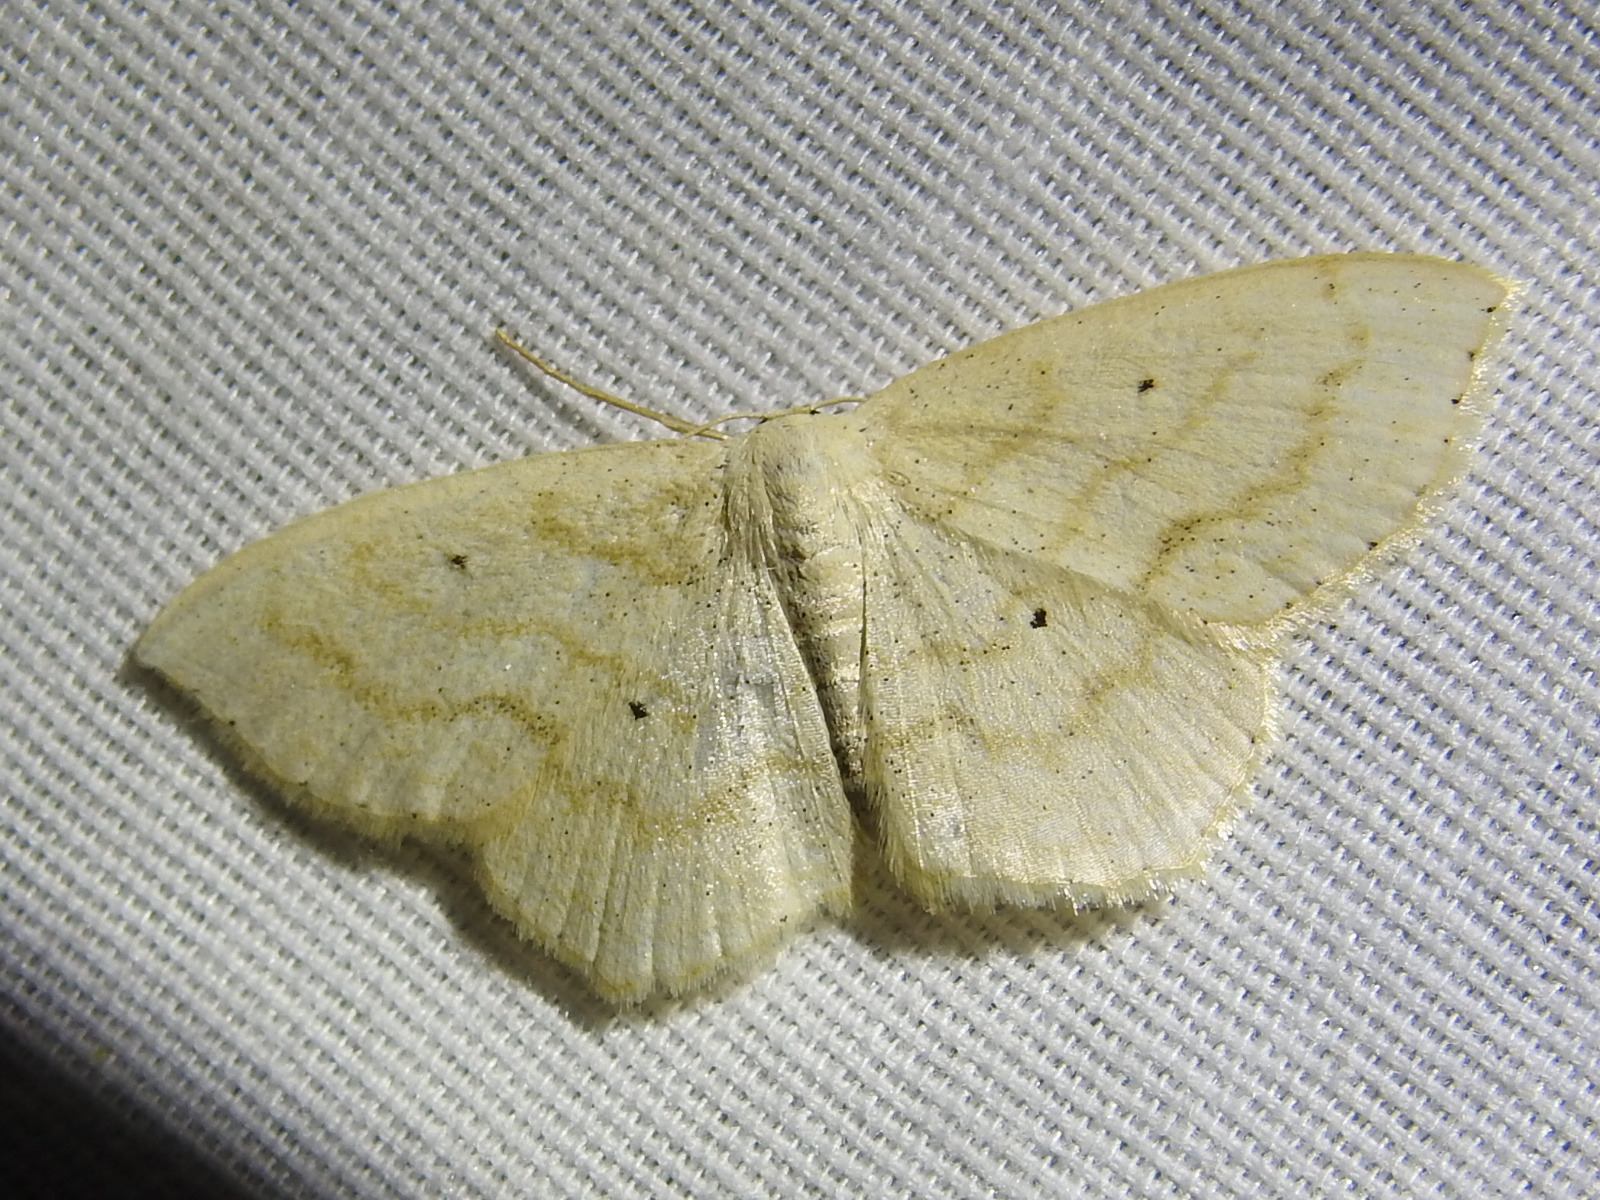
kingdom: Animalia
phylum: Arthropoda
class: Insecta
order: Lepidoptera
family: Geometridae
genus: Scopula
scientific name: Scopula limboundata
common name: Large lace border
